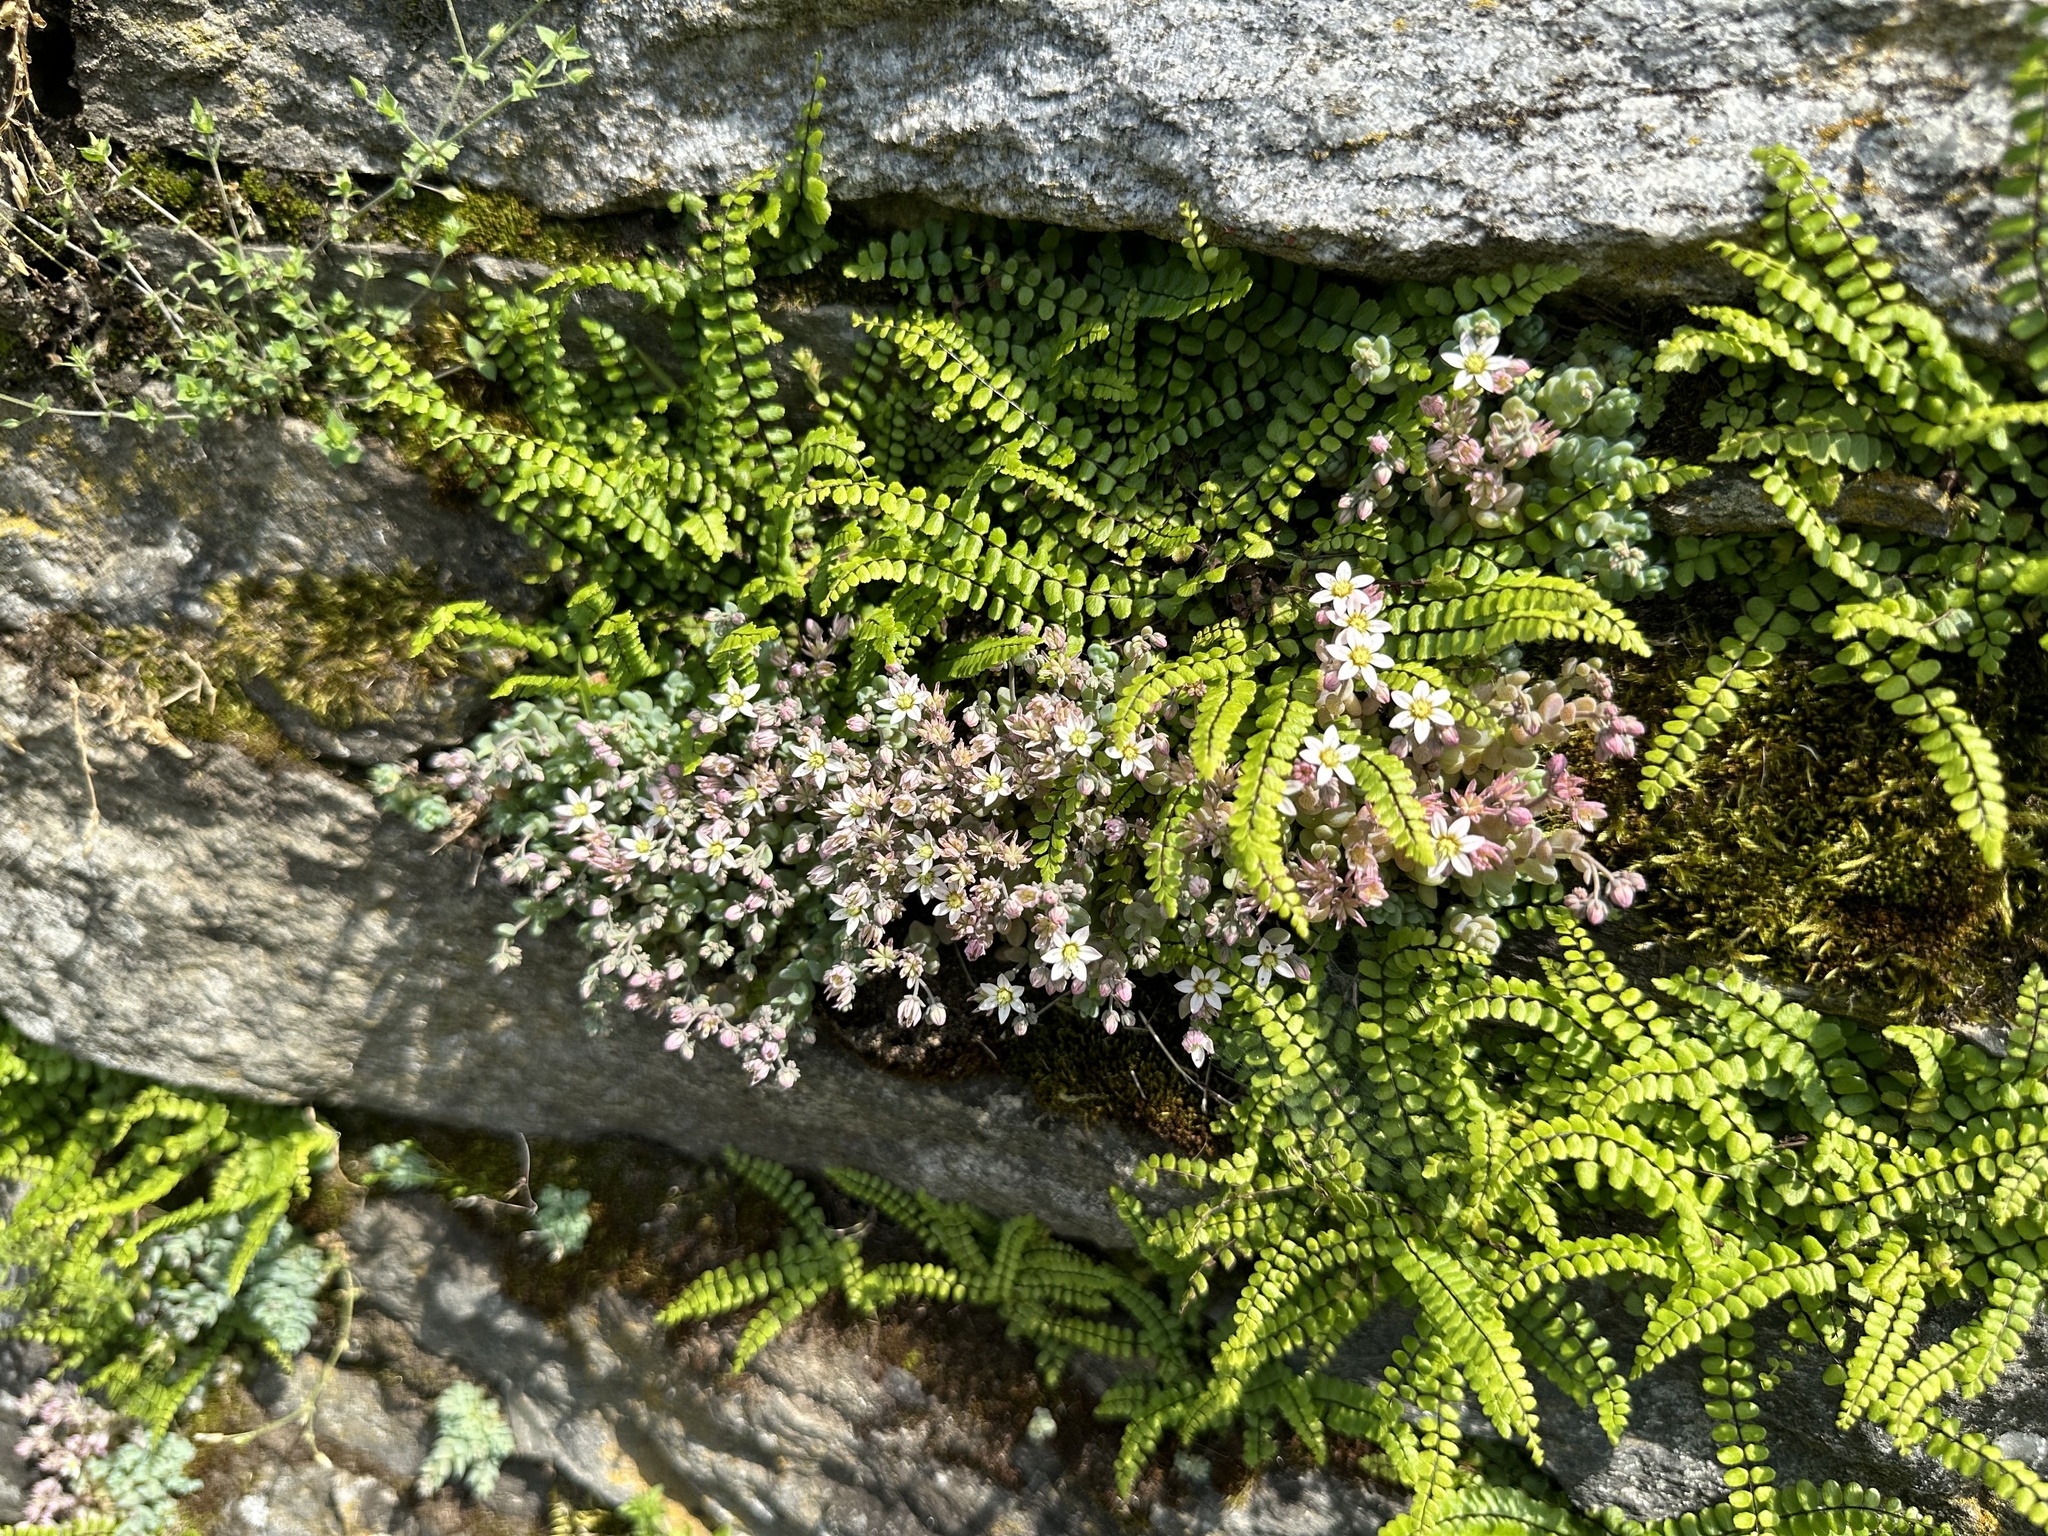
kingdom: Plantae
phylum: Tracheophyta
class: Magnoliopsida
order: Saxifragales
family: Crassulaceae
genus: Sedum
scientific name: Sedum dasyphyllum
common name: Thick-leaf stonecrop
